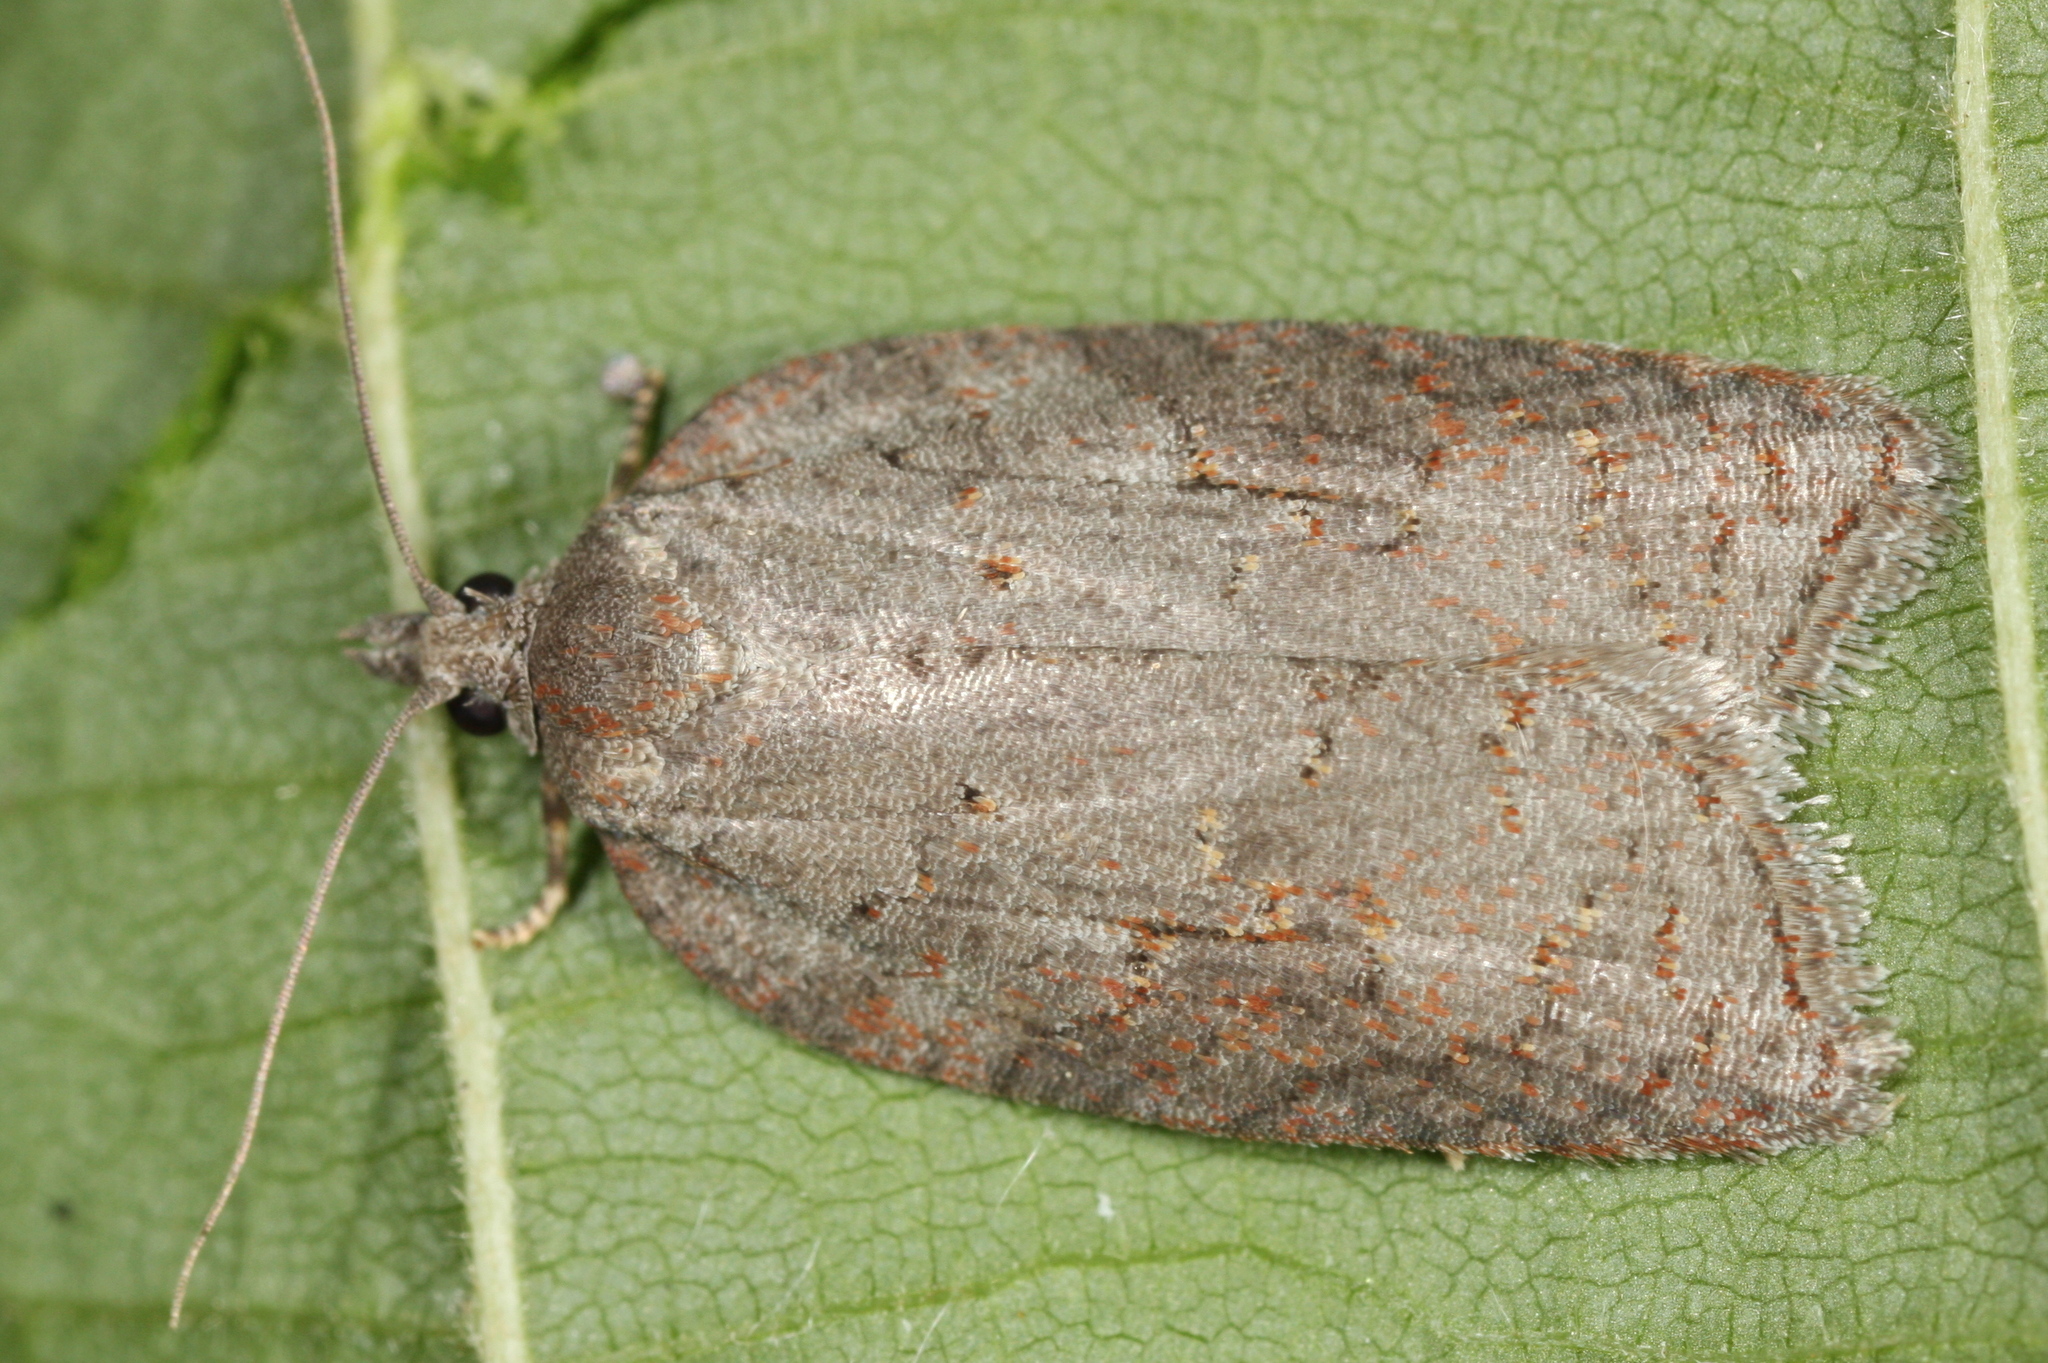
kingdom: Animalia
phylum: Arthropoda
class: Insecta
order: Lepidoptera
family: Tortricidae
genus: Acleris
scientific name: Acleris sparsana
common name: Ashy button
